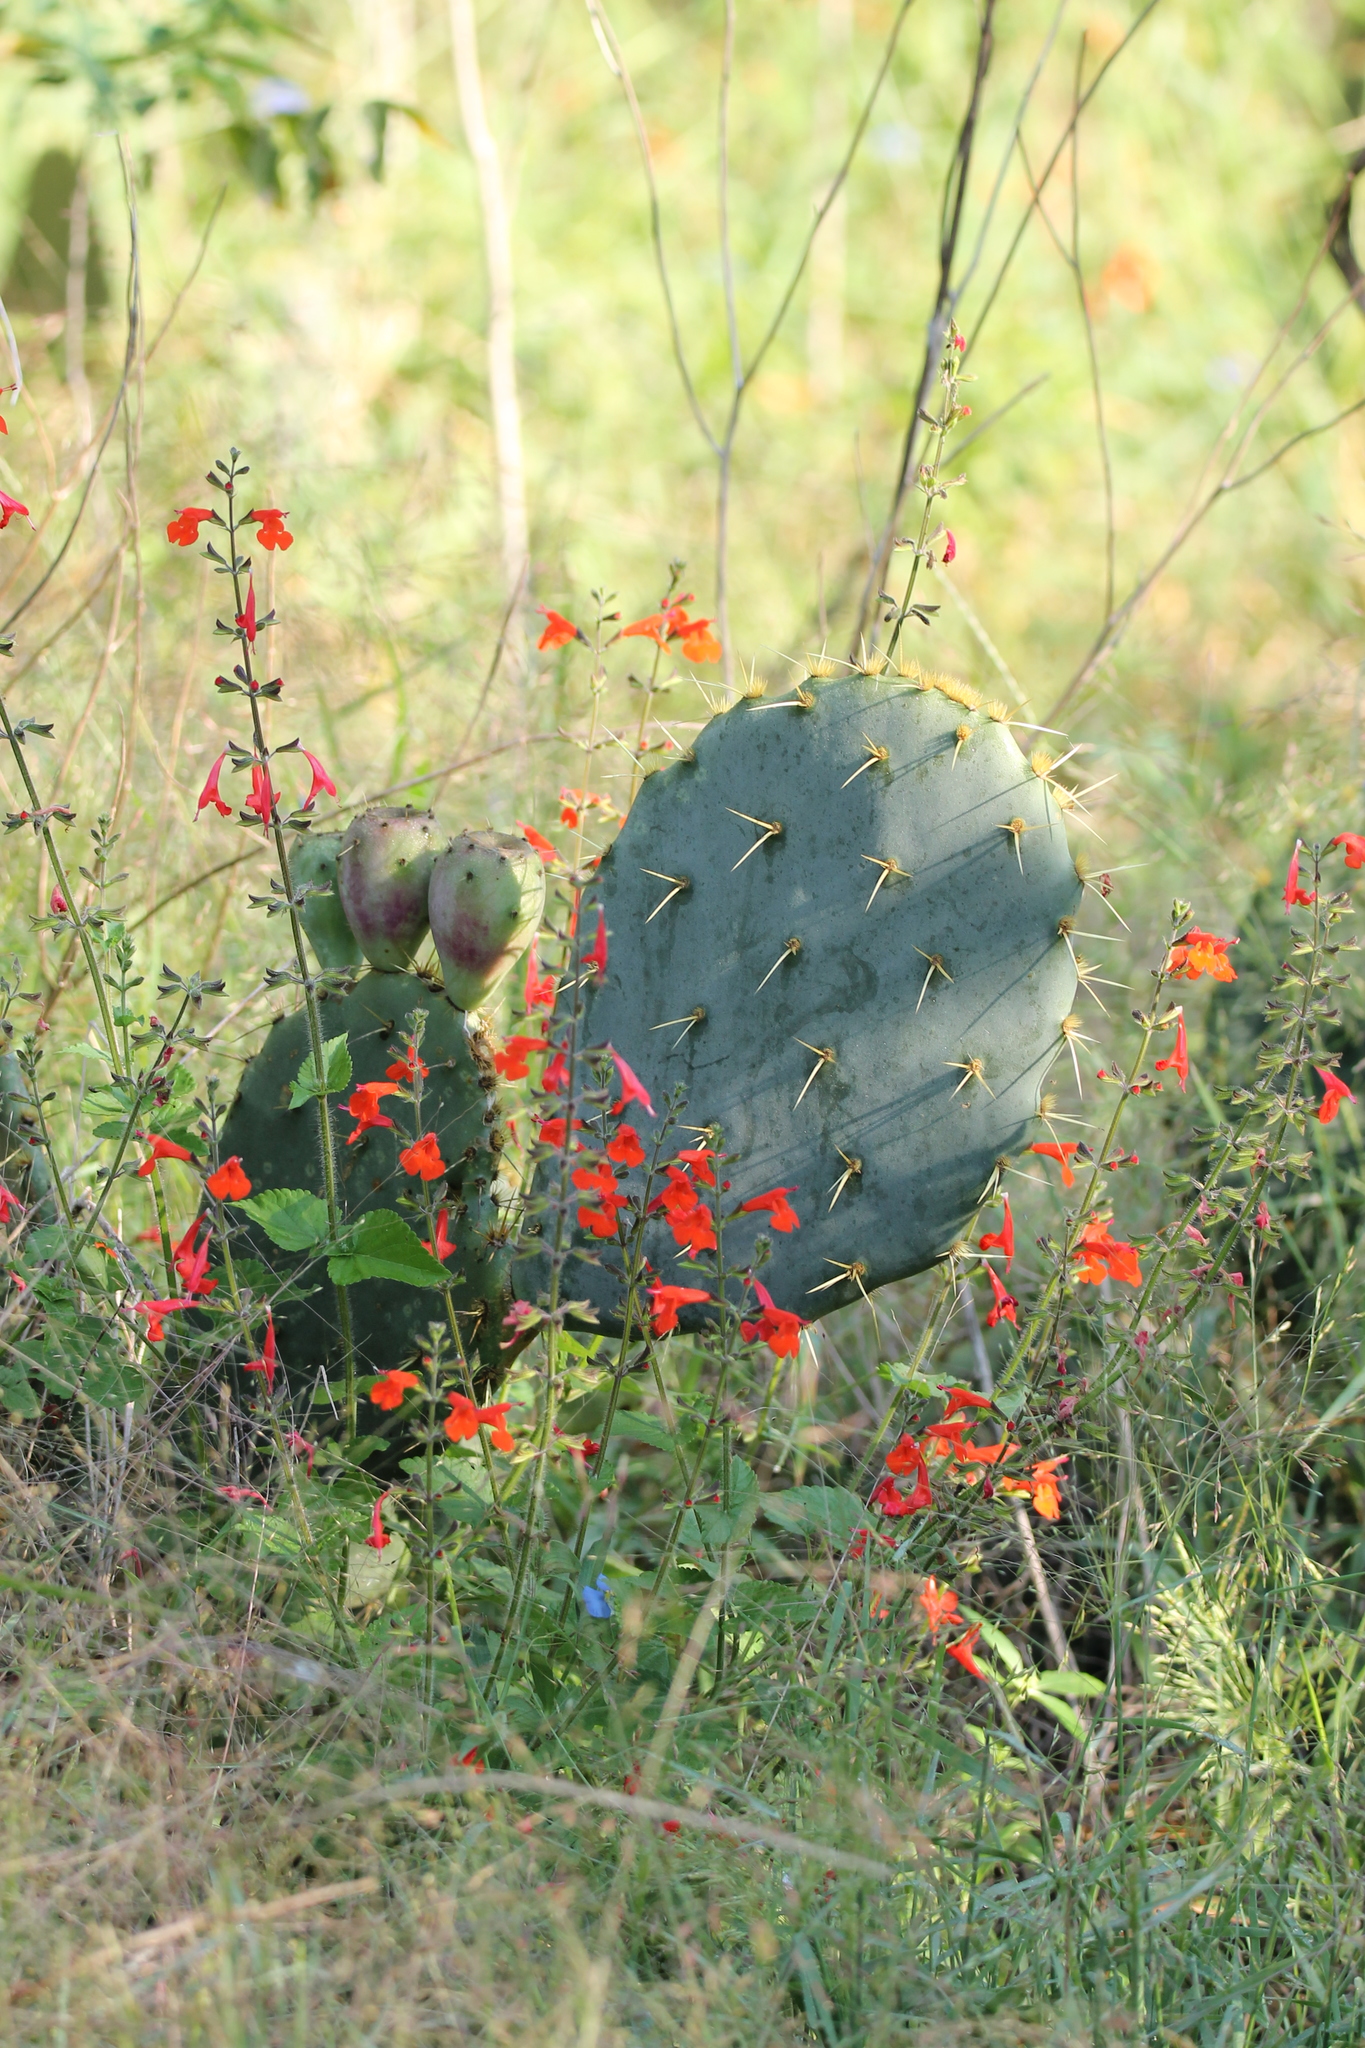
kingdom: Plantae
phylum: Tracheophyta
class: Magnoliopsida
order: Lamiales
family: Lamiaceae
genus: Salvia
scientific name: Salvia coccinea
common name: Blood sage
